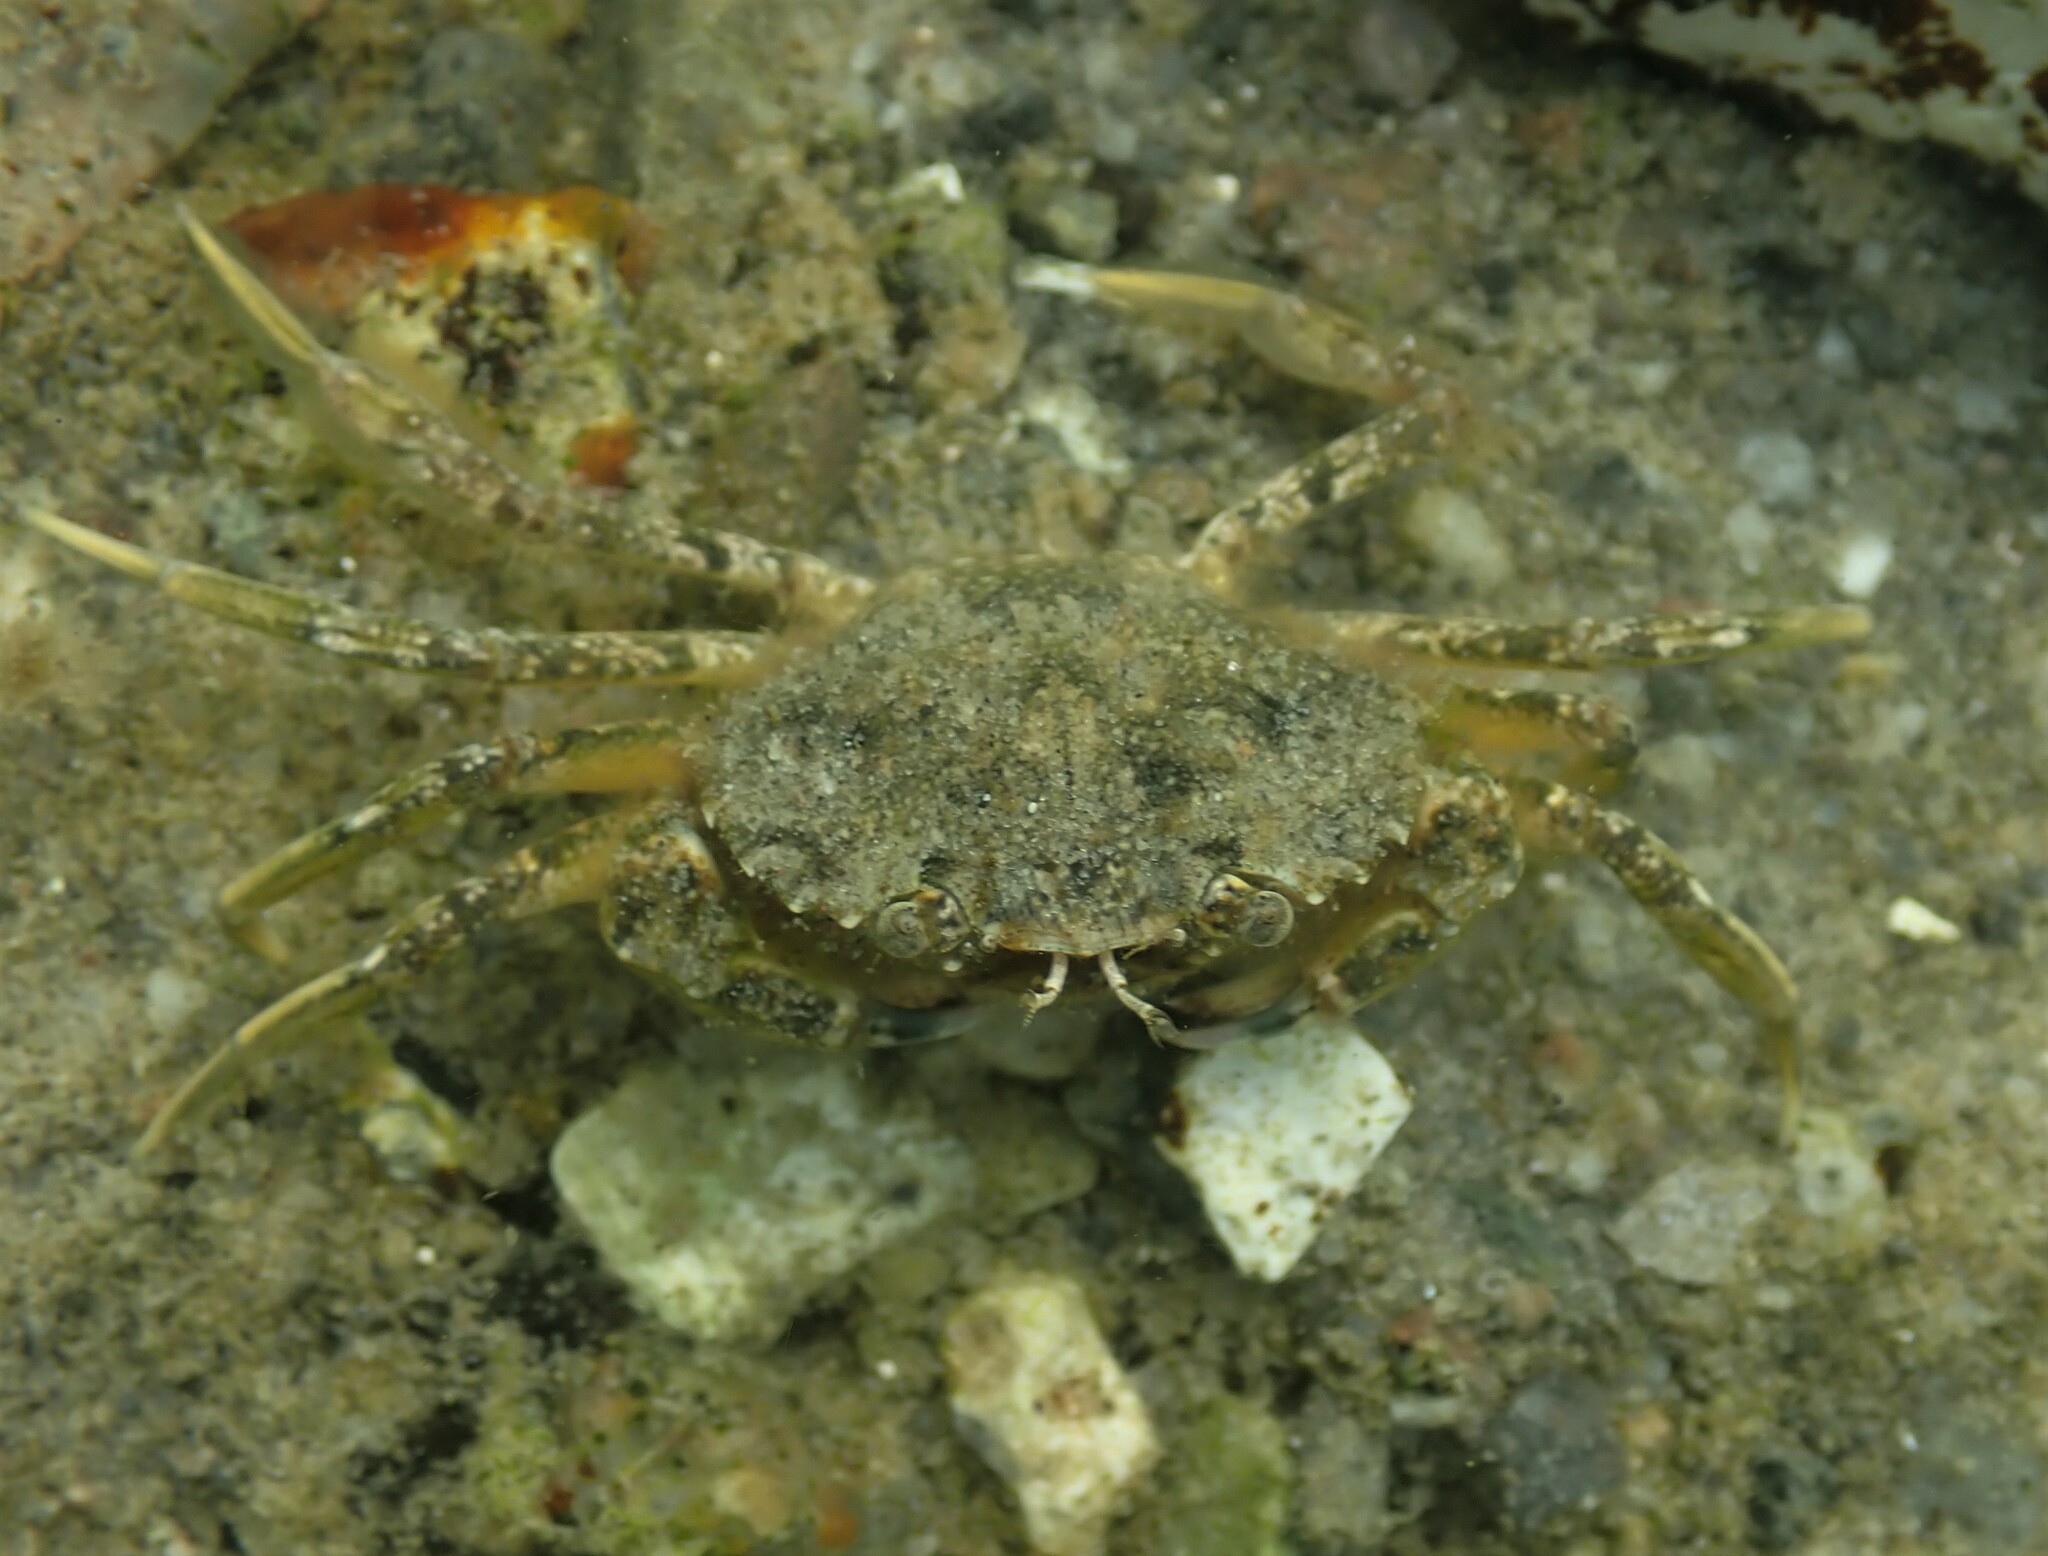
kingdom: Animalia
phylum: Arthropoda
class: Malacostraca
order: Decapoda
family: Carcinidae
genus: Carcinus
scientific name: Carcinus maenas
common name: European green crab
